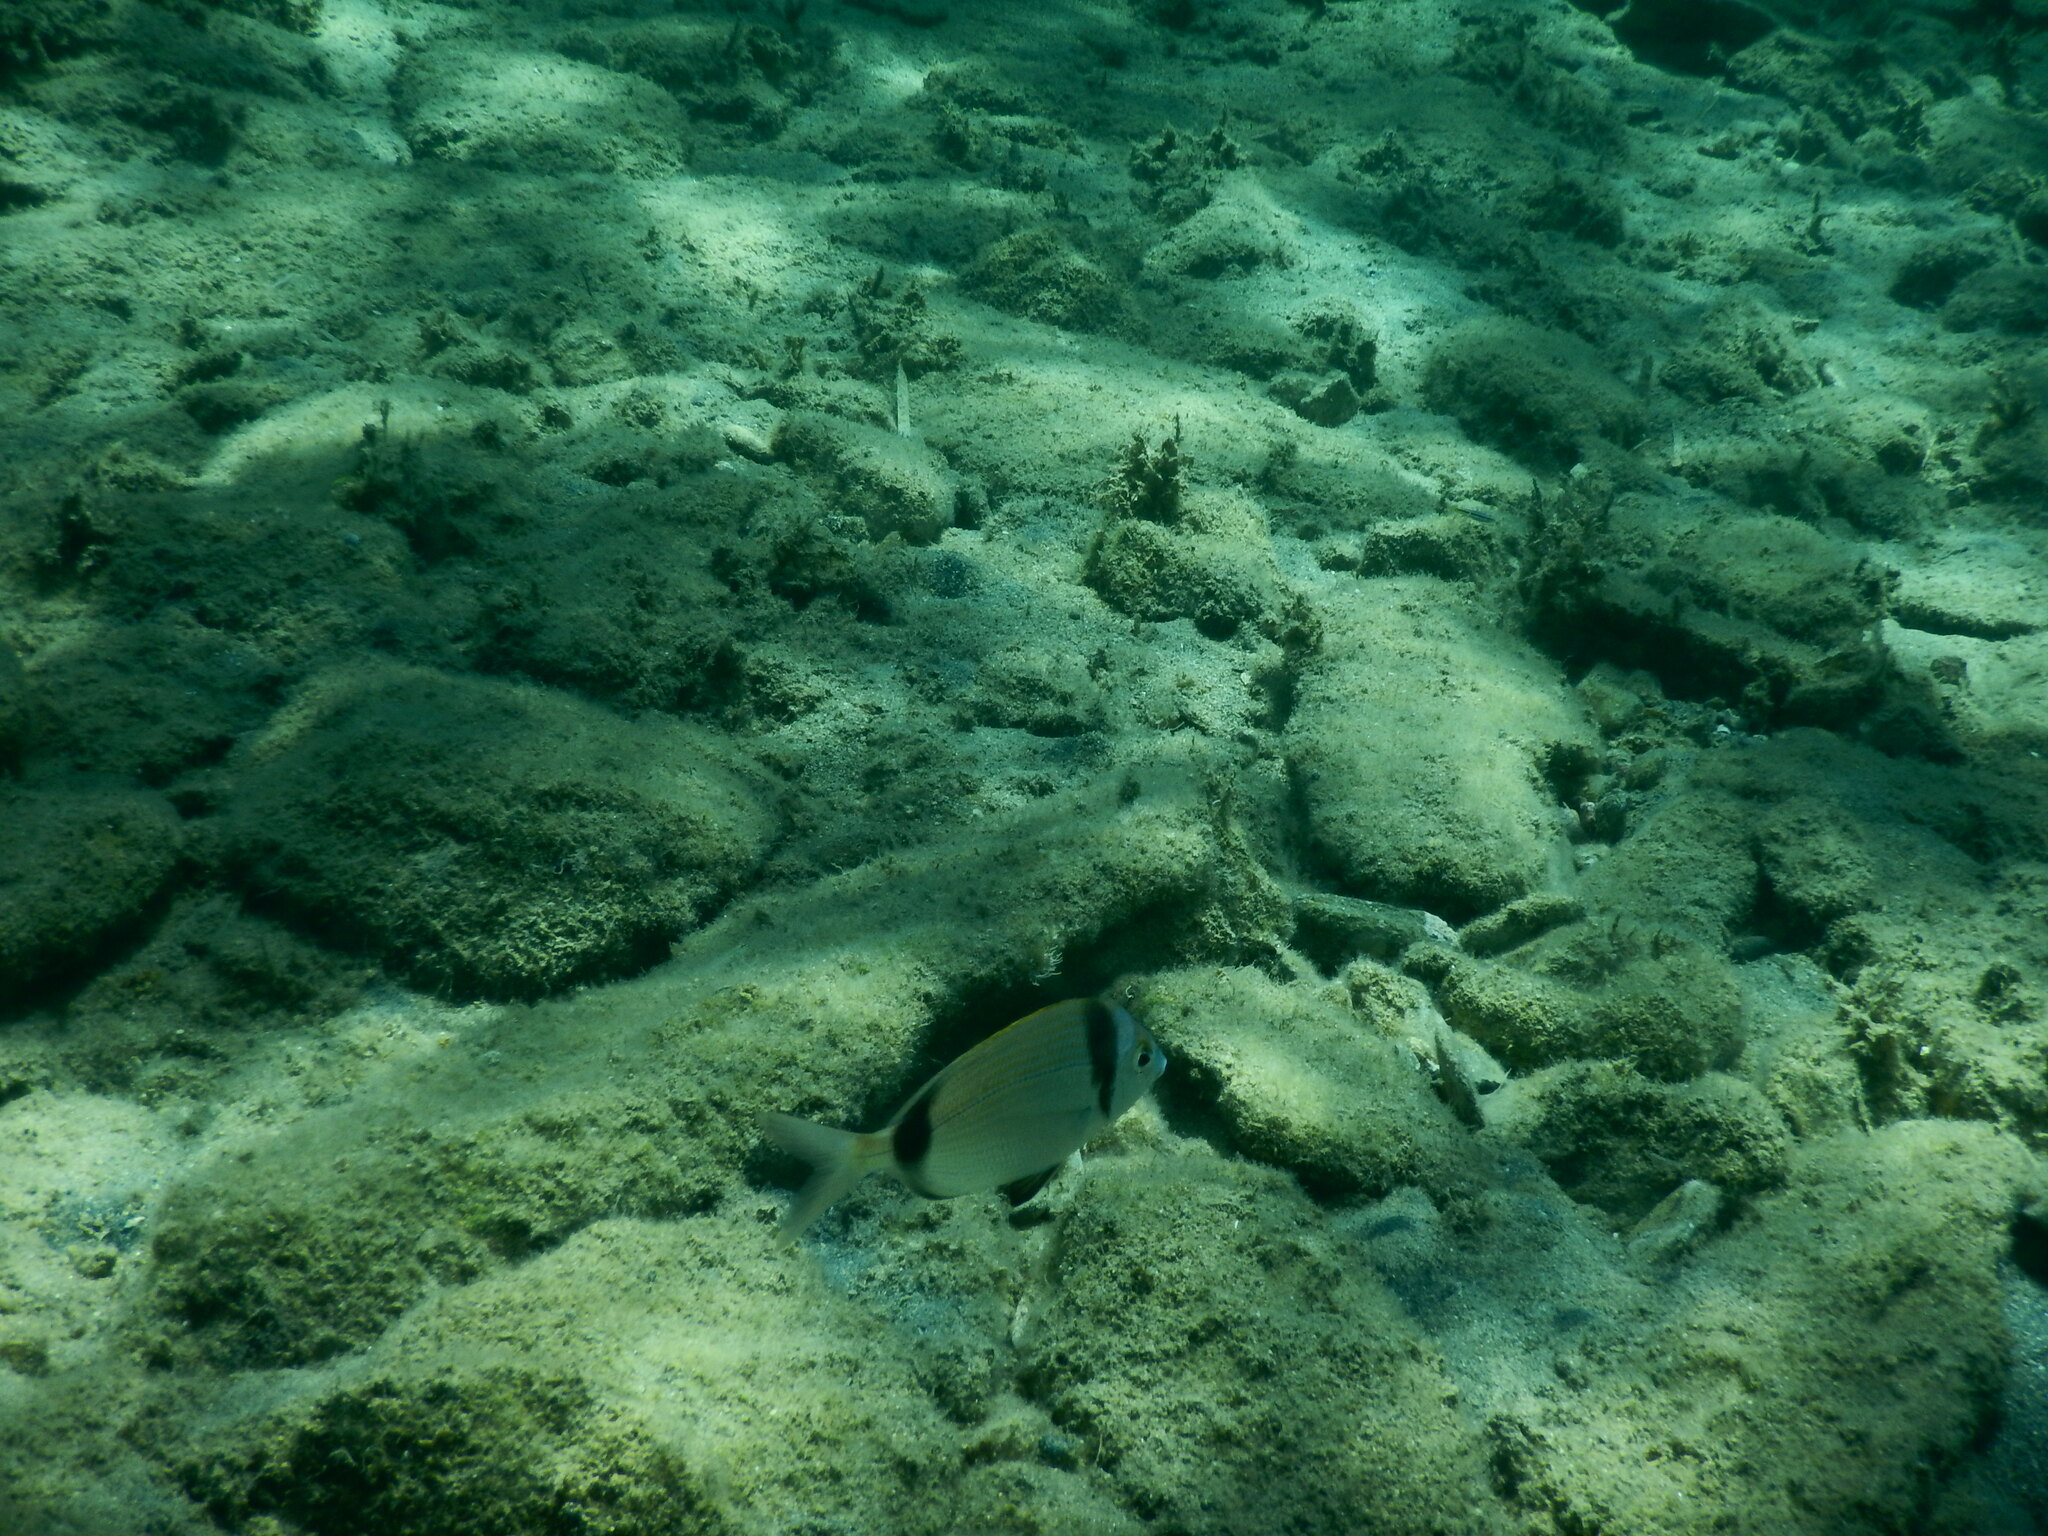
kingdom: Animalia
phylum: Chordata
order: Perciformes
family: Sparidae
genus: Diplodus
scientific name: Diplodus vulgaris
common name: Common two-banded seabream
